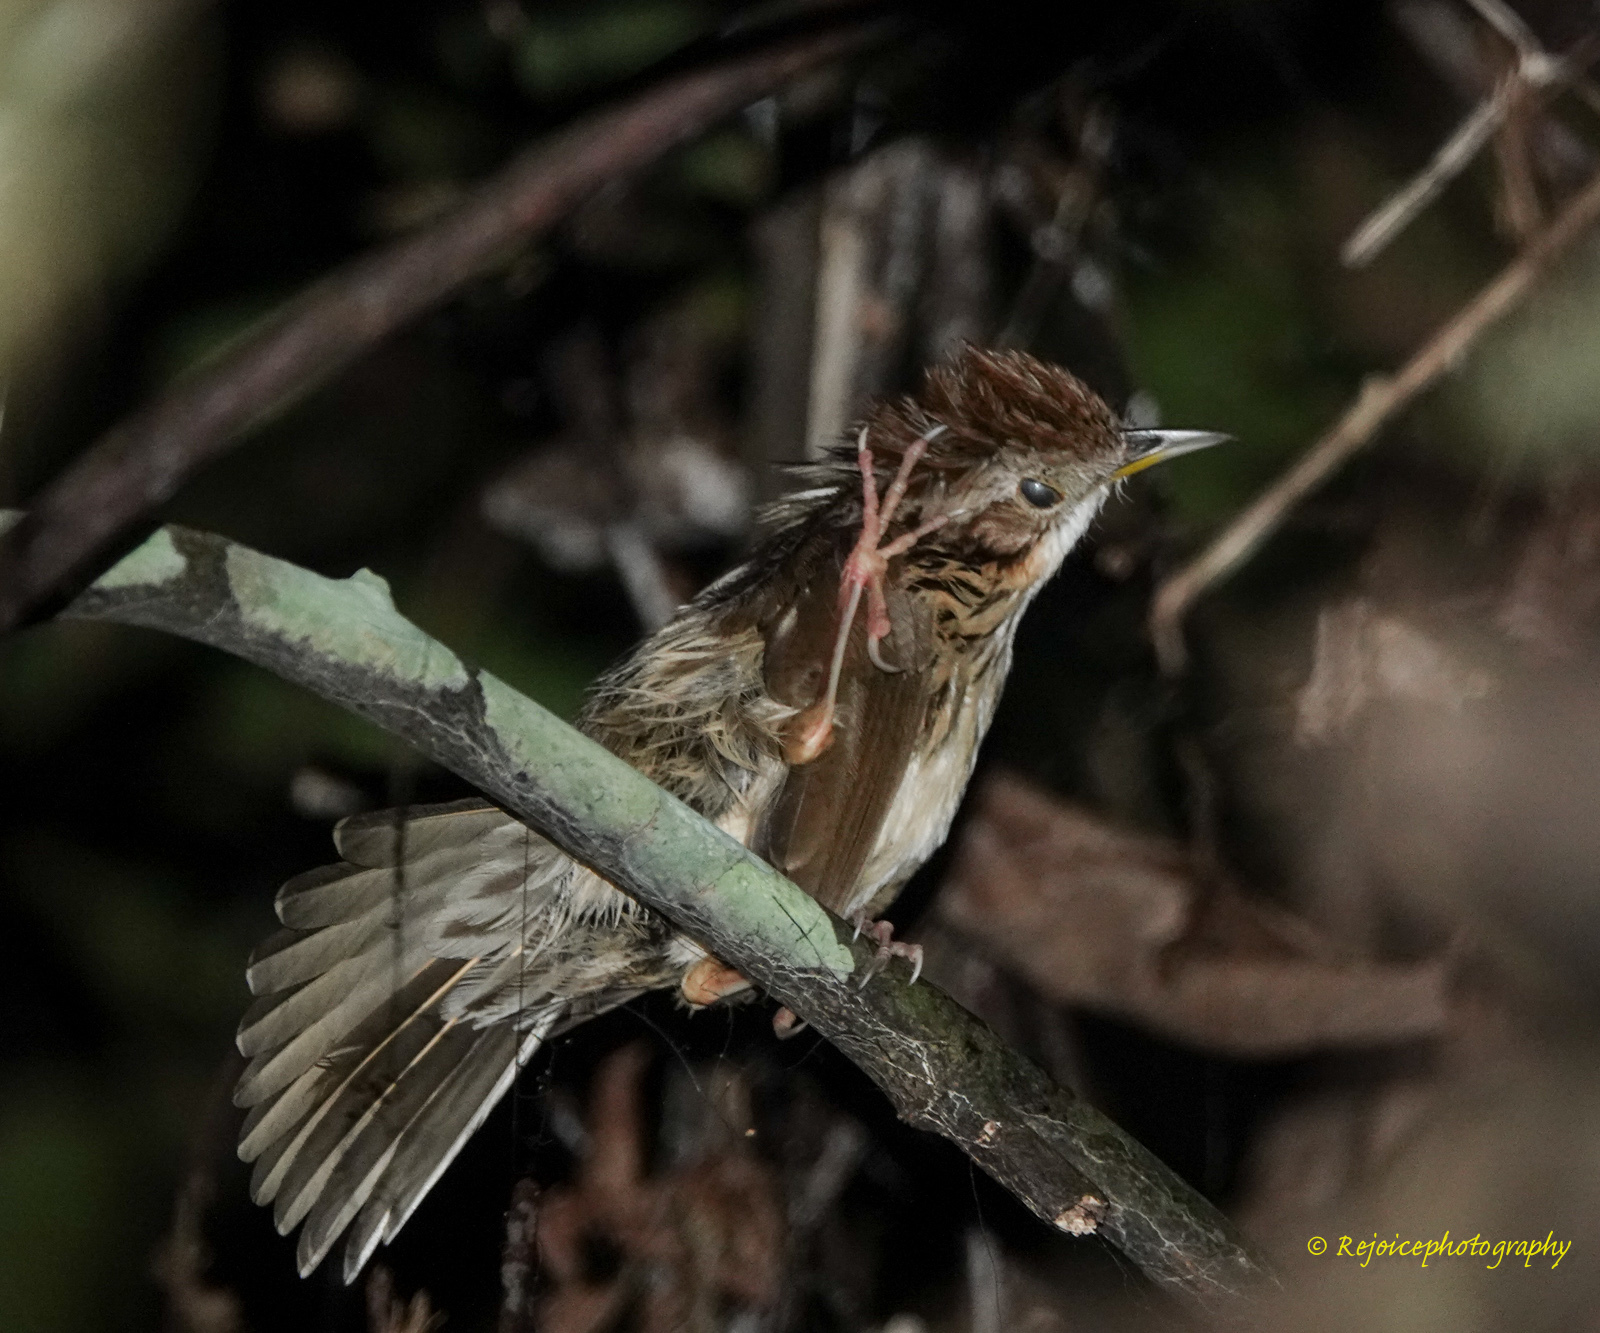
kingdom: Animalia
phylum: Chordata
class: Aves
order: Passeriformes
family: Pellorneidae
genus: Pellorneum
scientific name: Pellorneum ruficeps
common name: Puff-throated babbler
